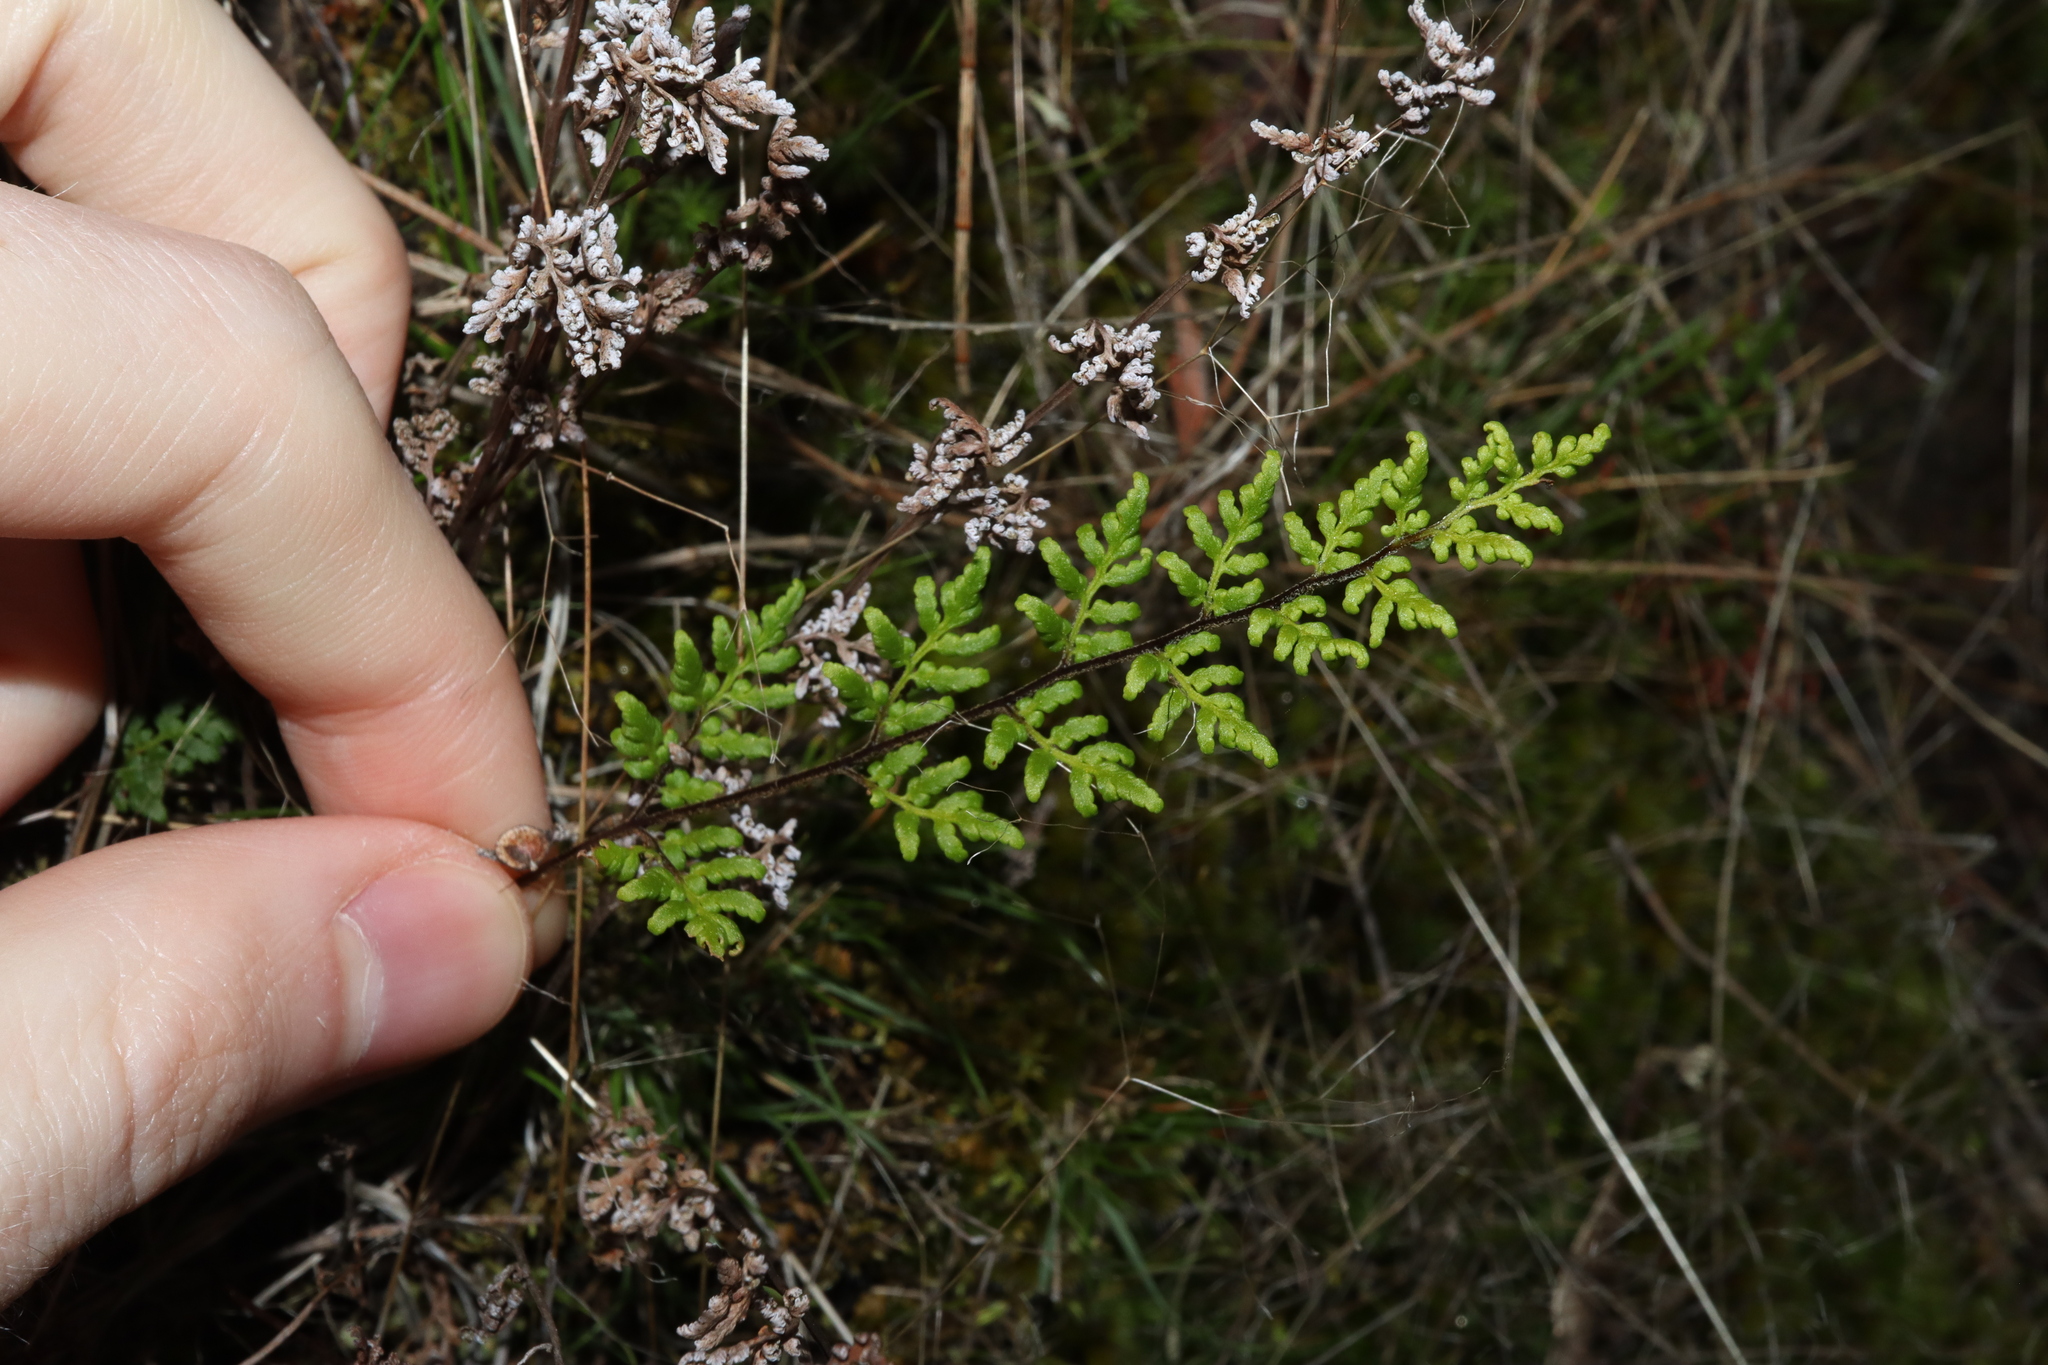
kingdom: Plantae
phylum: Tracheophyta
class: Polypodiopsida
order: Polypodiales
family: Pteridaceae
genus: Cheilanthes
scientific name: Cheilanthes sieberi
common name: Mulga fern
